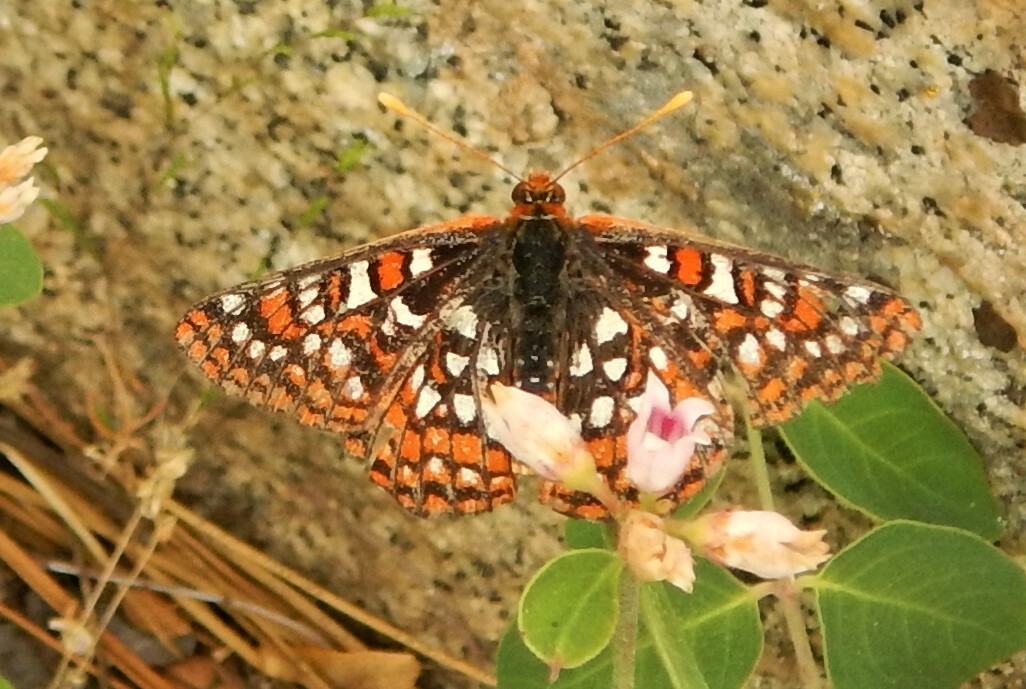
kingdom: Animalia
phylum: Arthropoda
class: Insecta
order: Lepidoptera
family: Nymphalidae
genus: Occidryas
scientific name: Occidryas chalcedona
